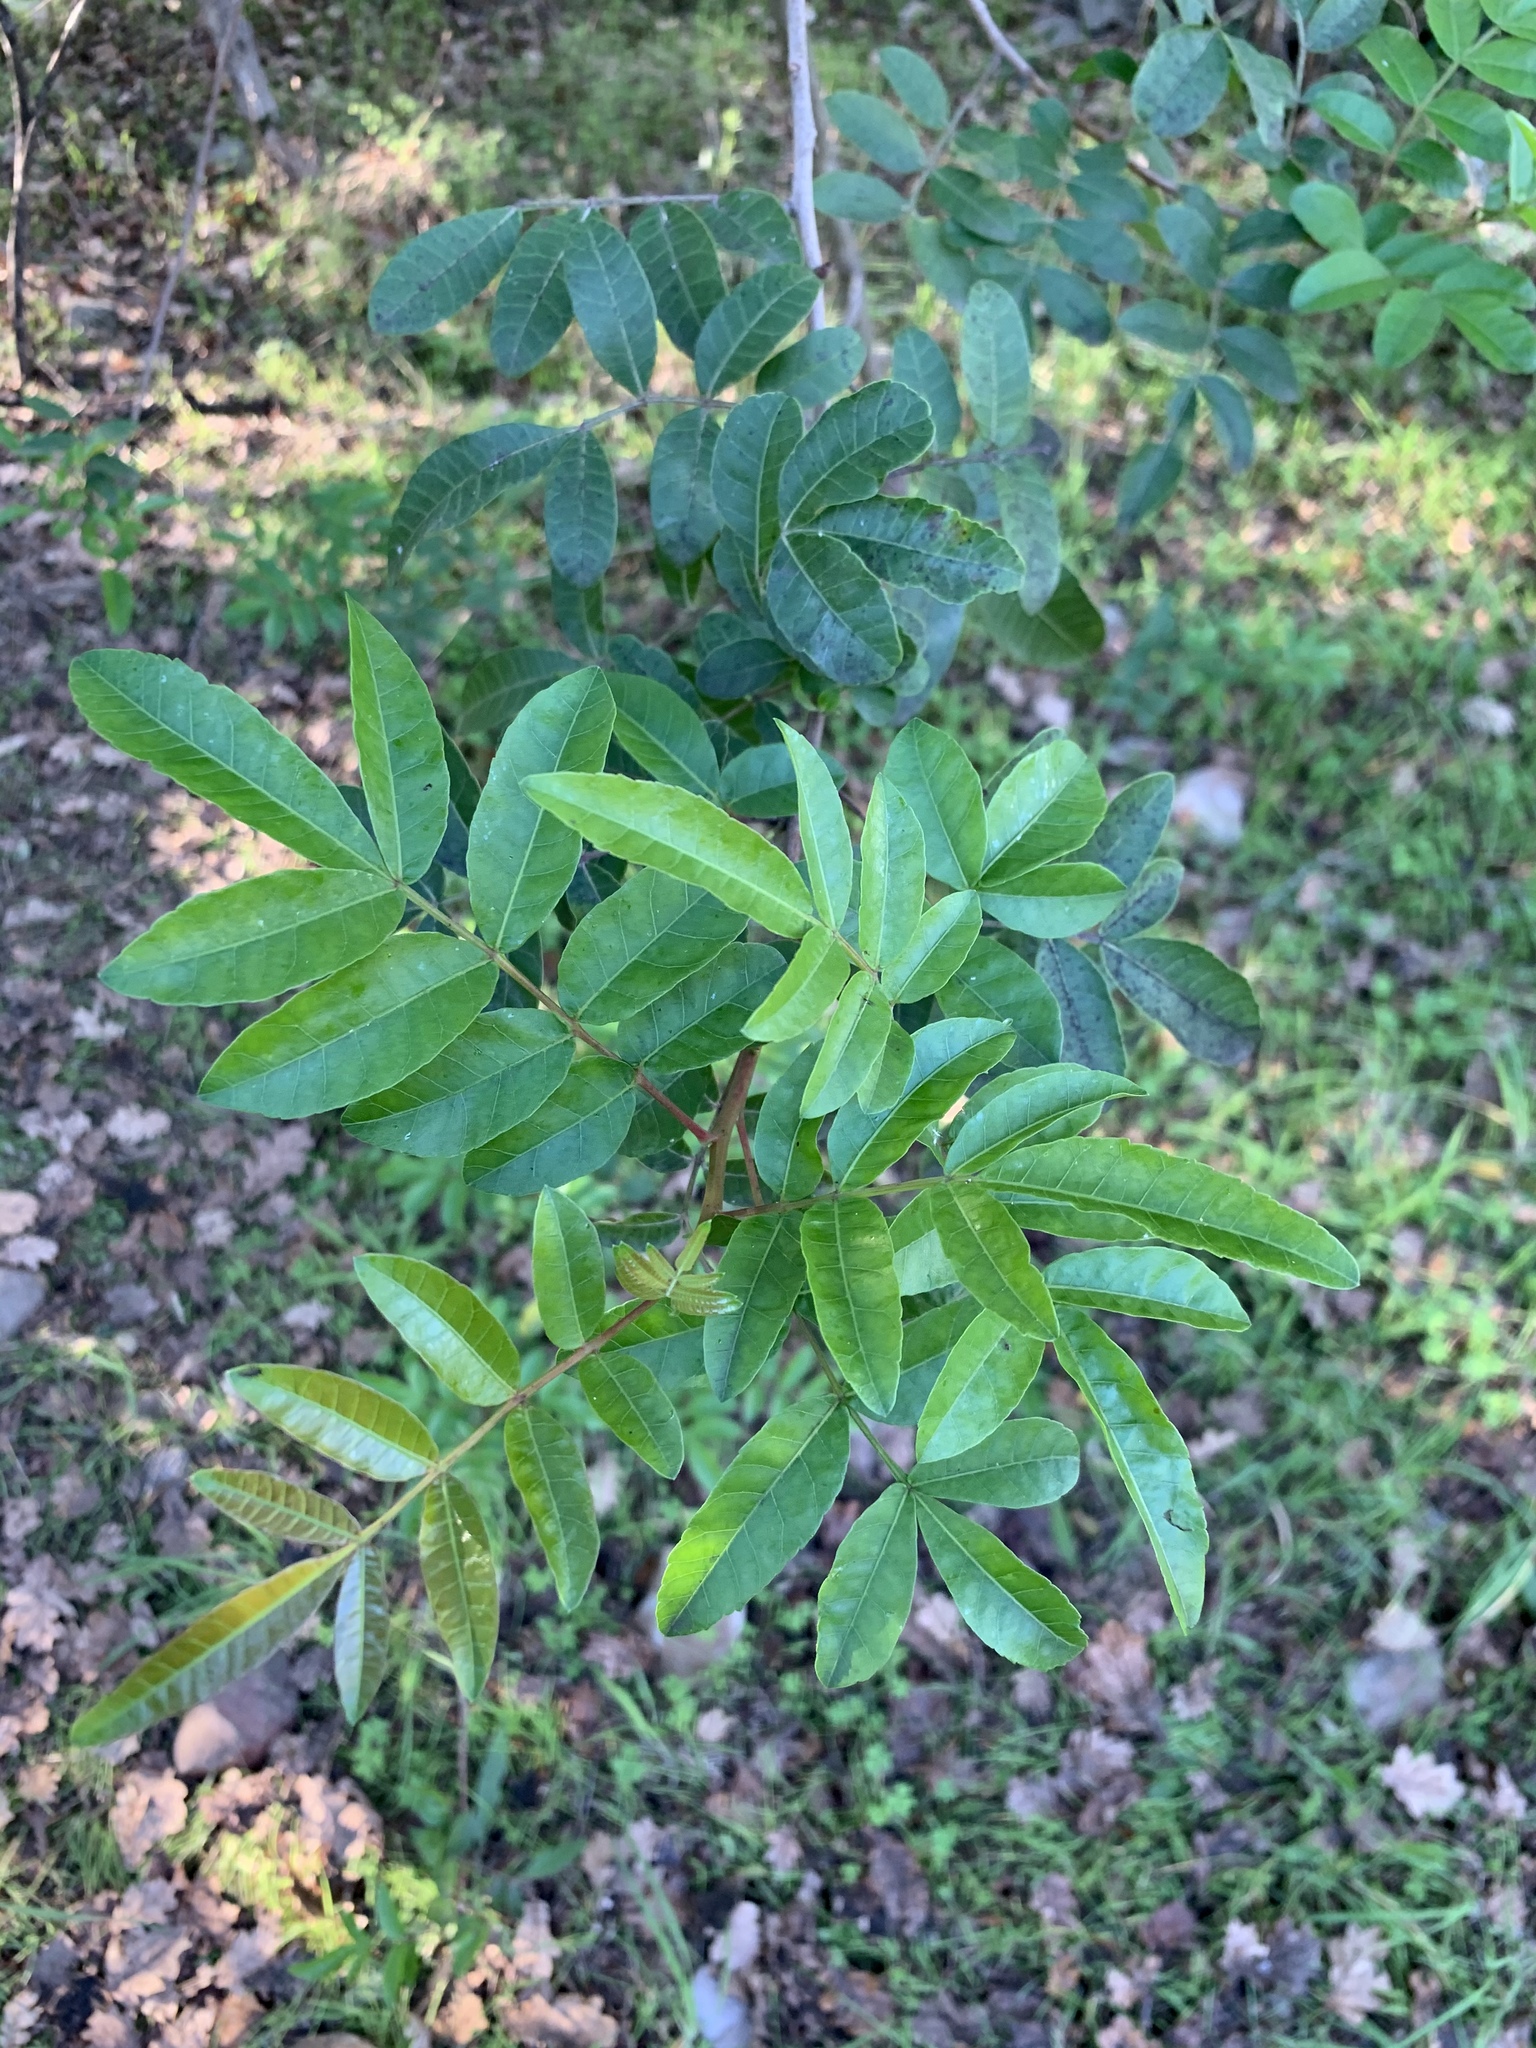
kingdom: Plantae
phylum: Tracheophyta
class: Magnoliopsida
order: Sapindales
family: Anacardiaceae
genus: Schinus
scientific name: Schinus terebinthifolia
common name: Brazilian peppertree
